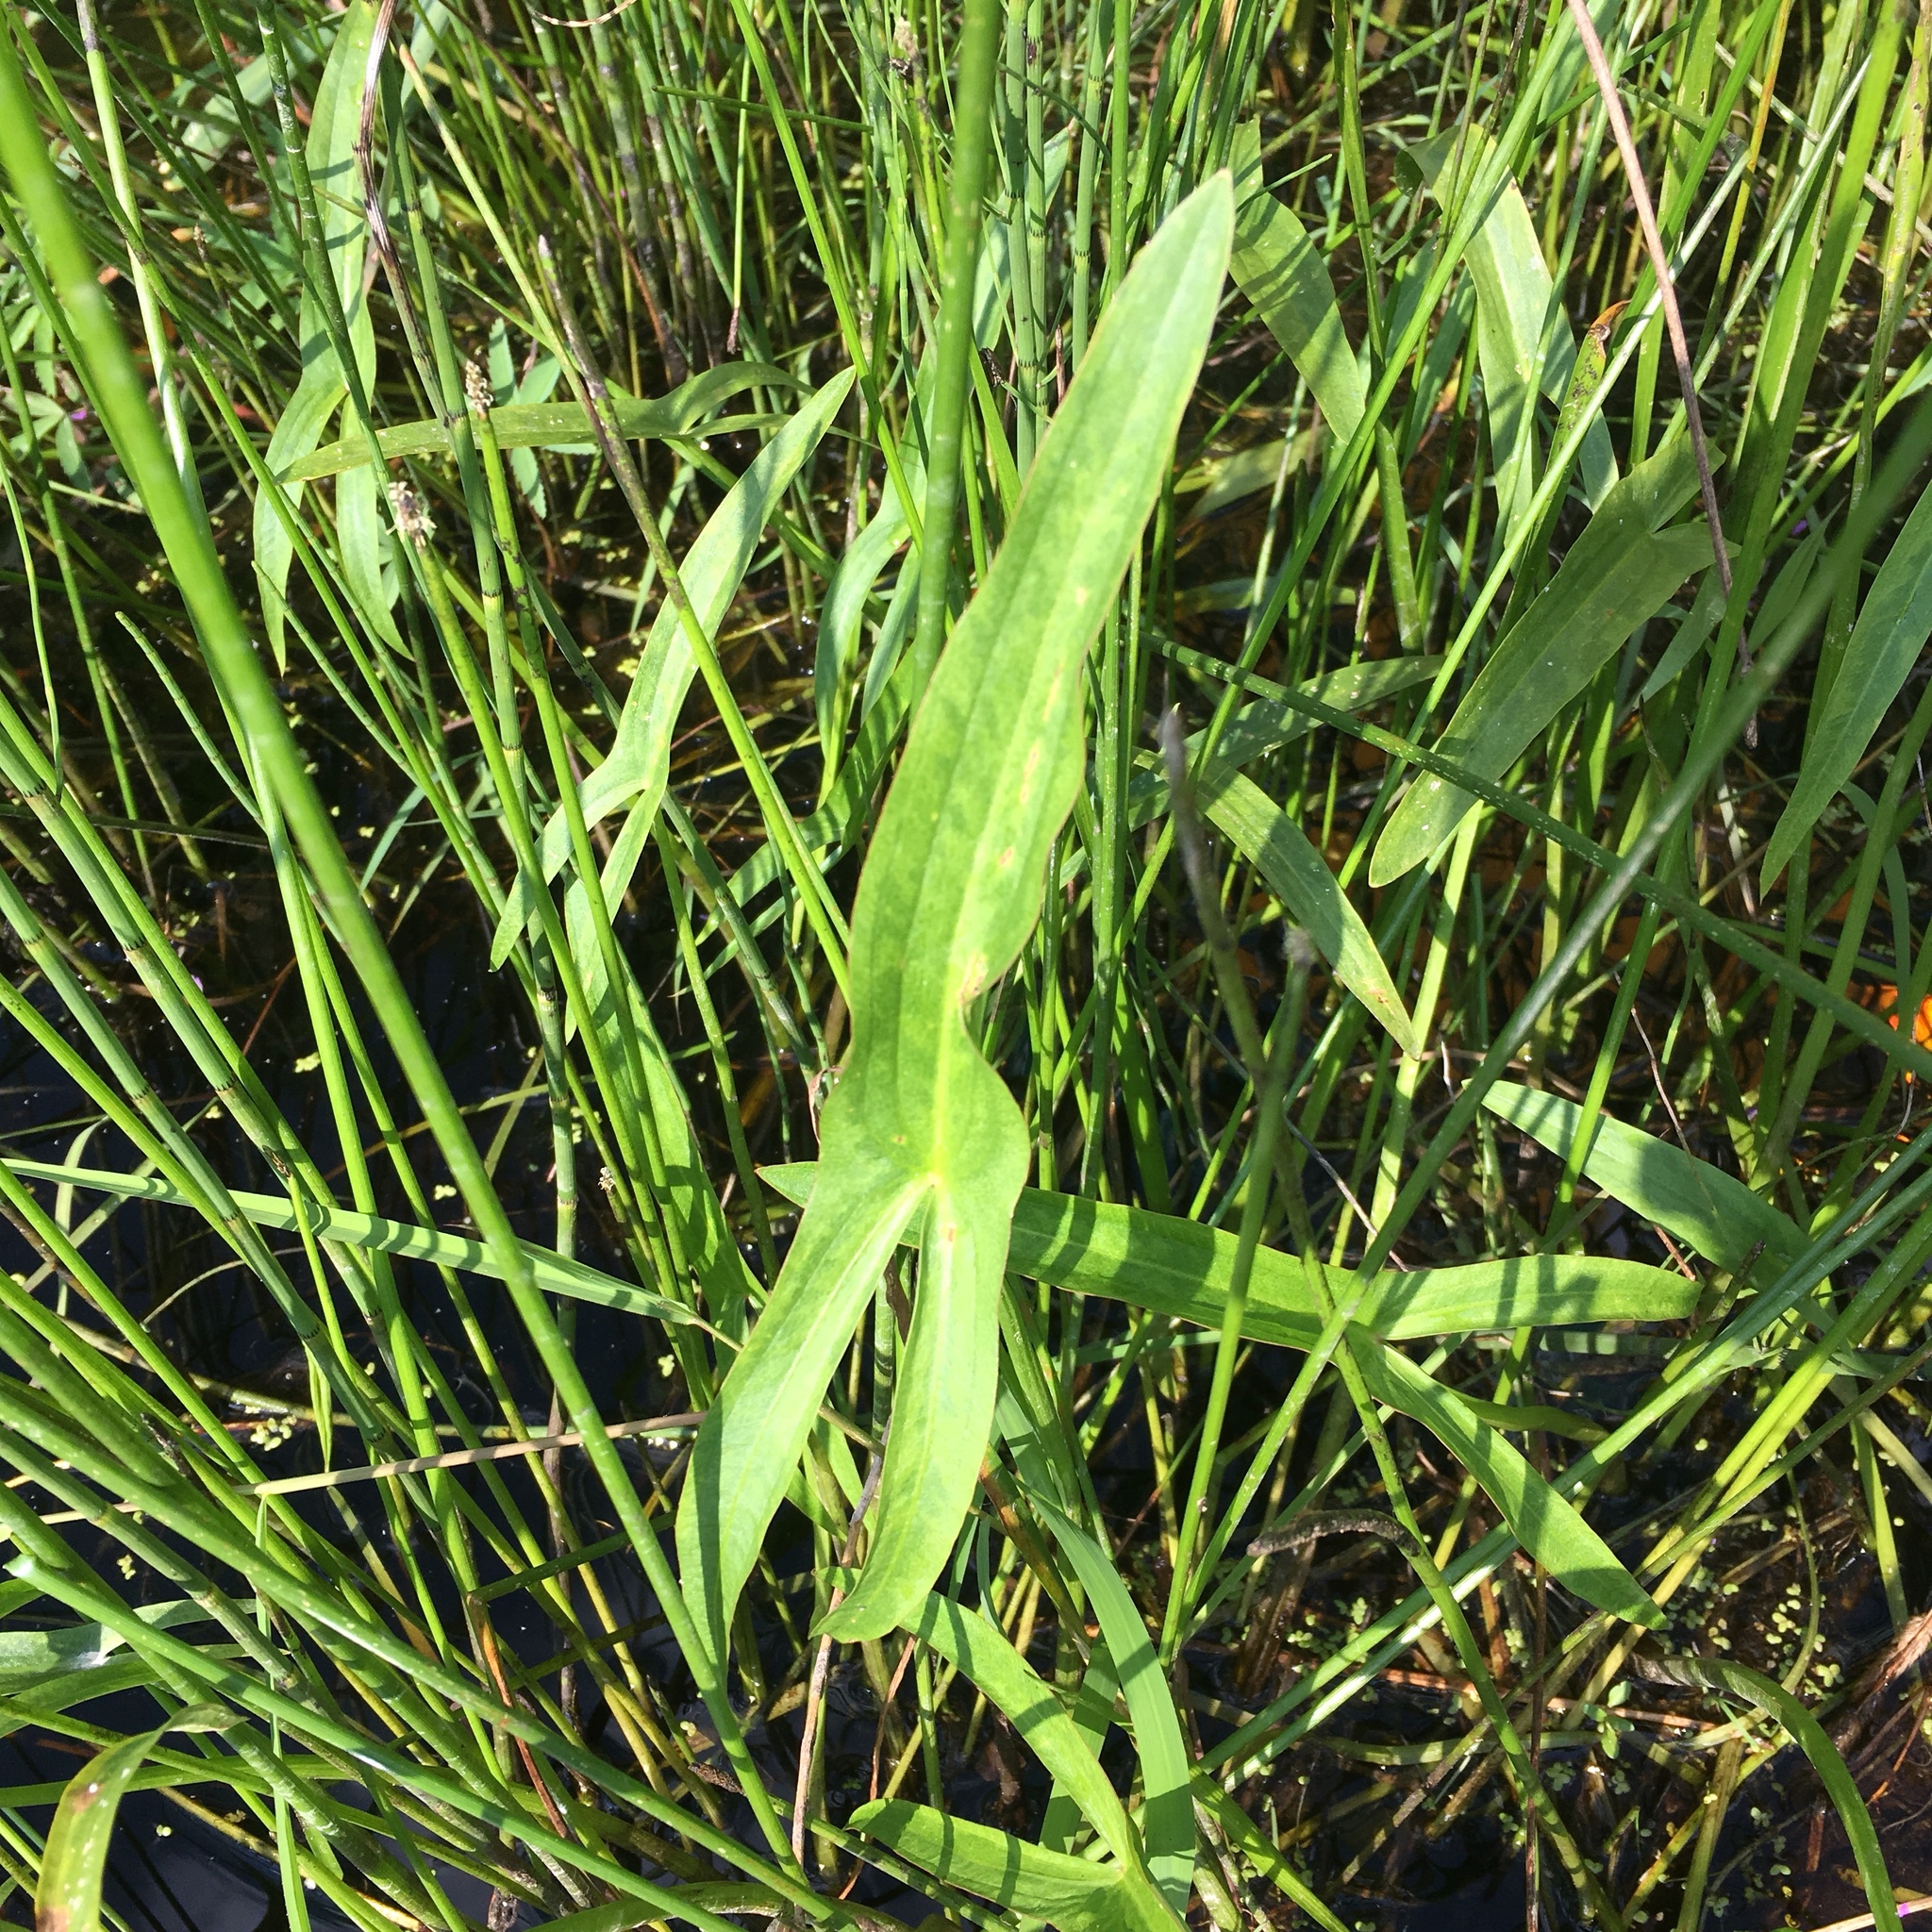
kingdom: Plantae
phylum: Tracheophyta
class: Liliopsida
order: Alismatales
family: Alismataceae
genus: Sagittaria
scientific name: Sagittaria latifolia
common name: Duck-potato
